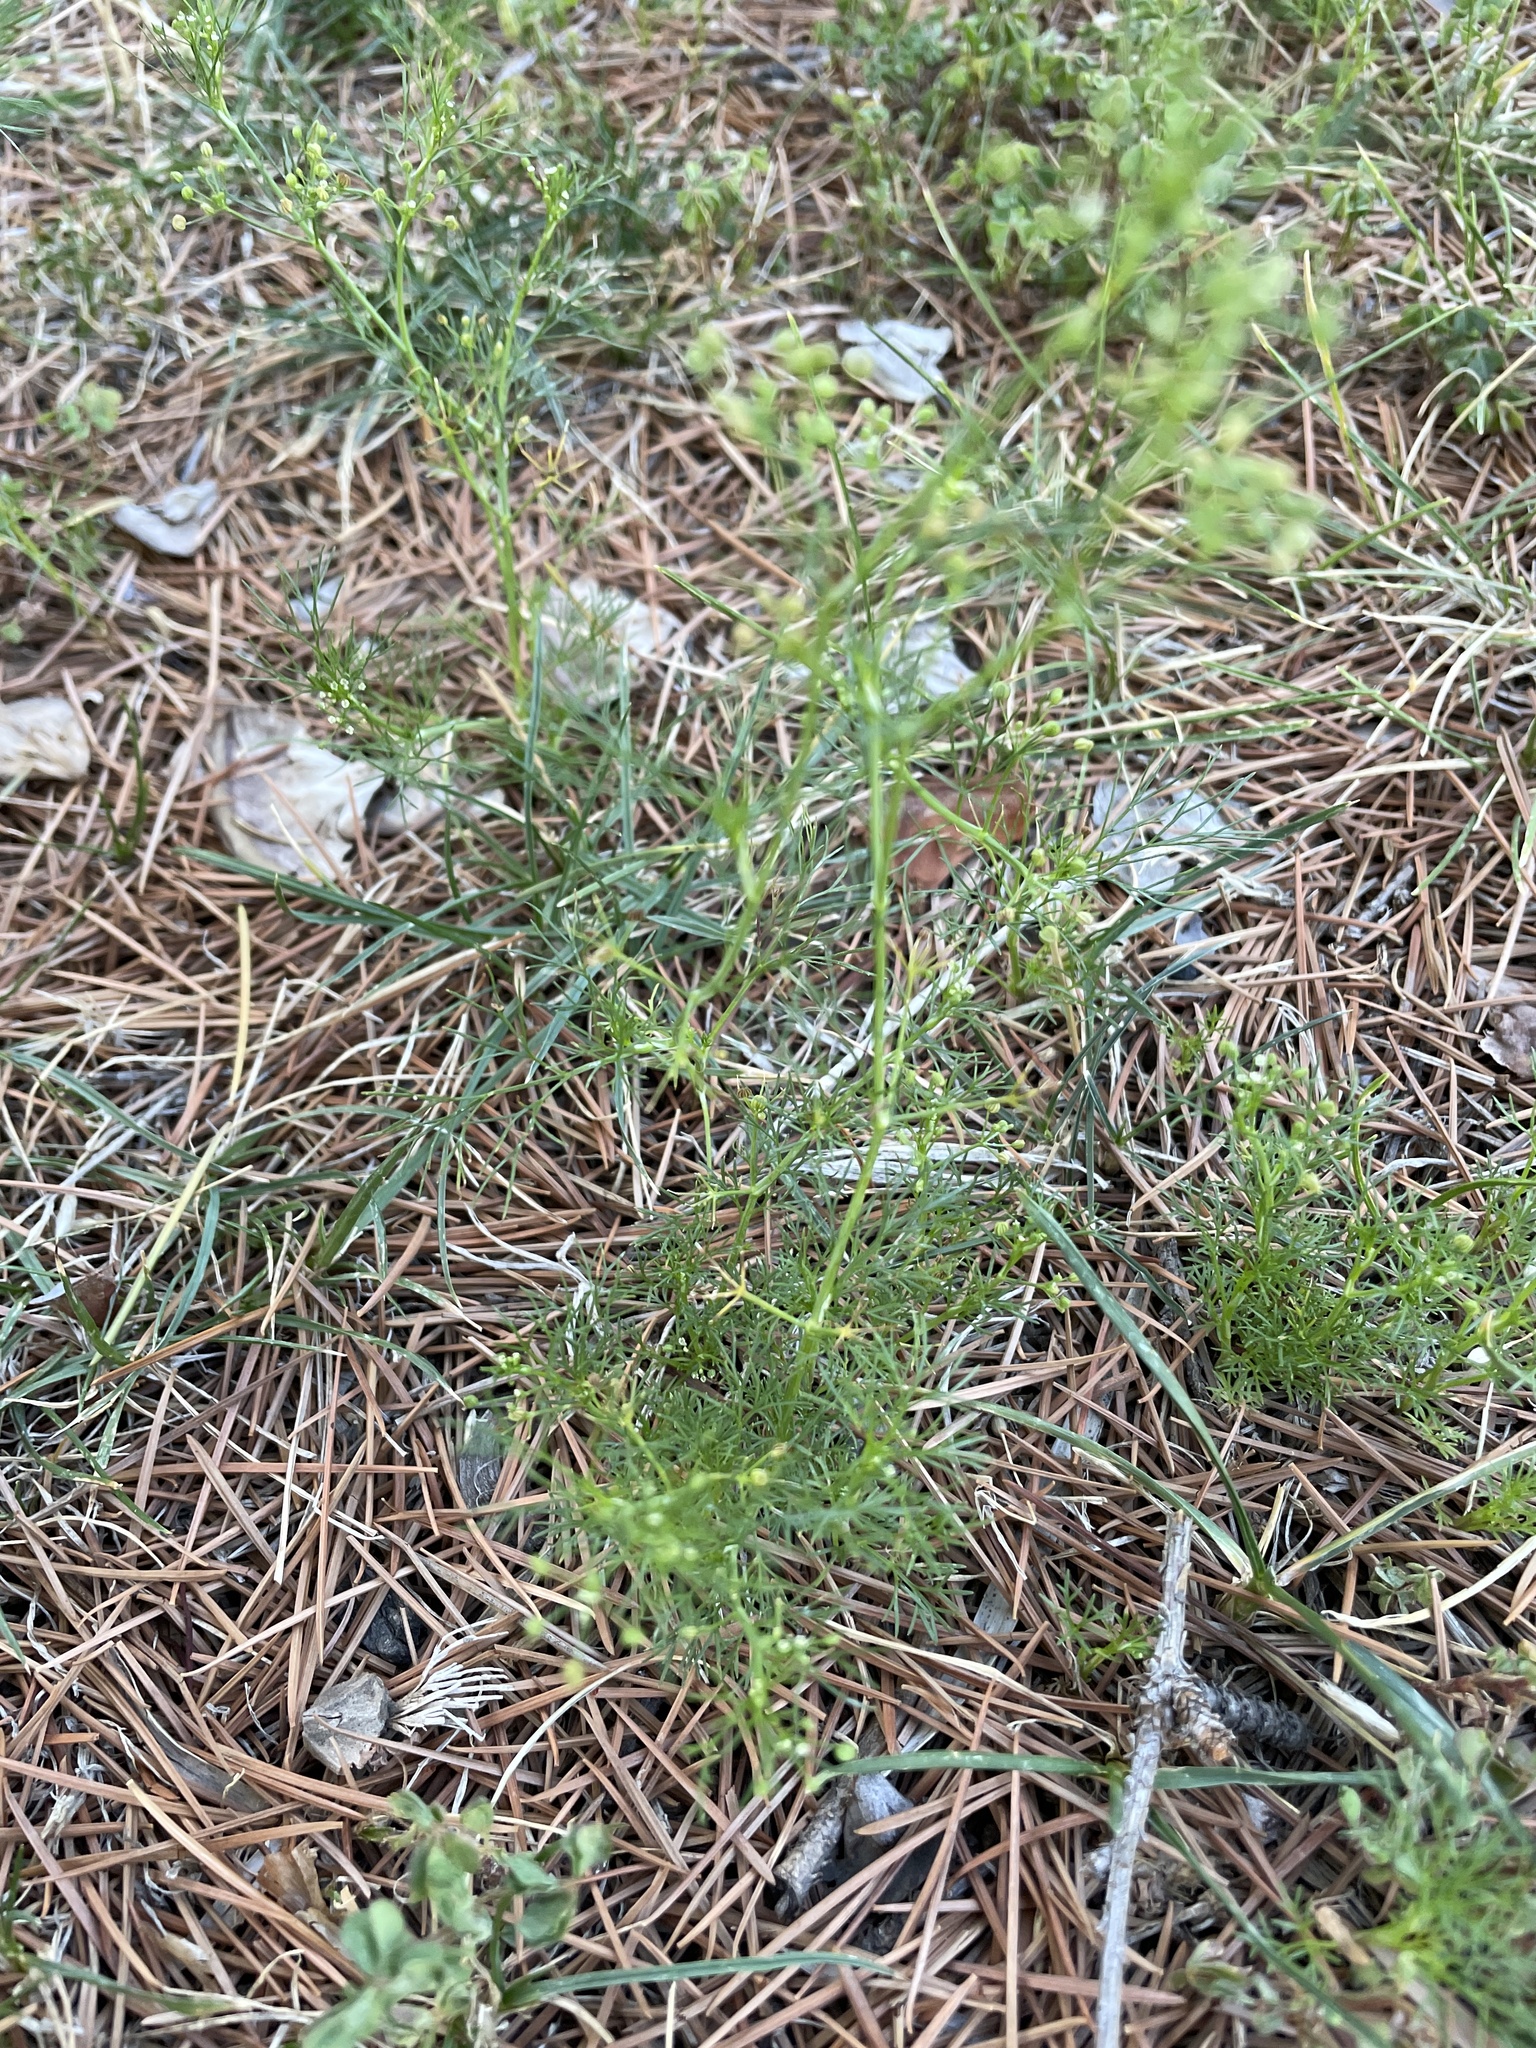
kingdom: Plantae
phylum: Tracheophyta
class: Magnoliopsida
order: Apiales
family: Apiaceae
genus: Cyclospermum
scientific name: Cyclospermum leptophyllum
